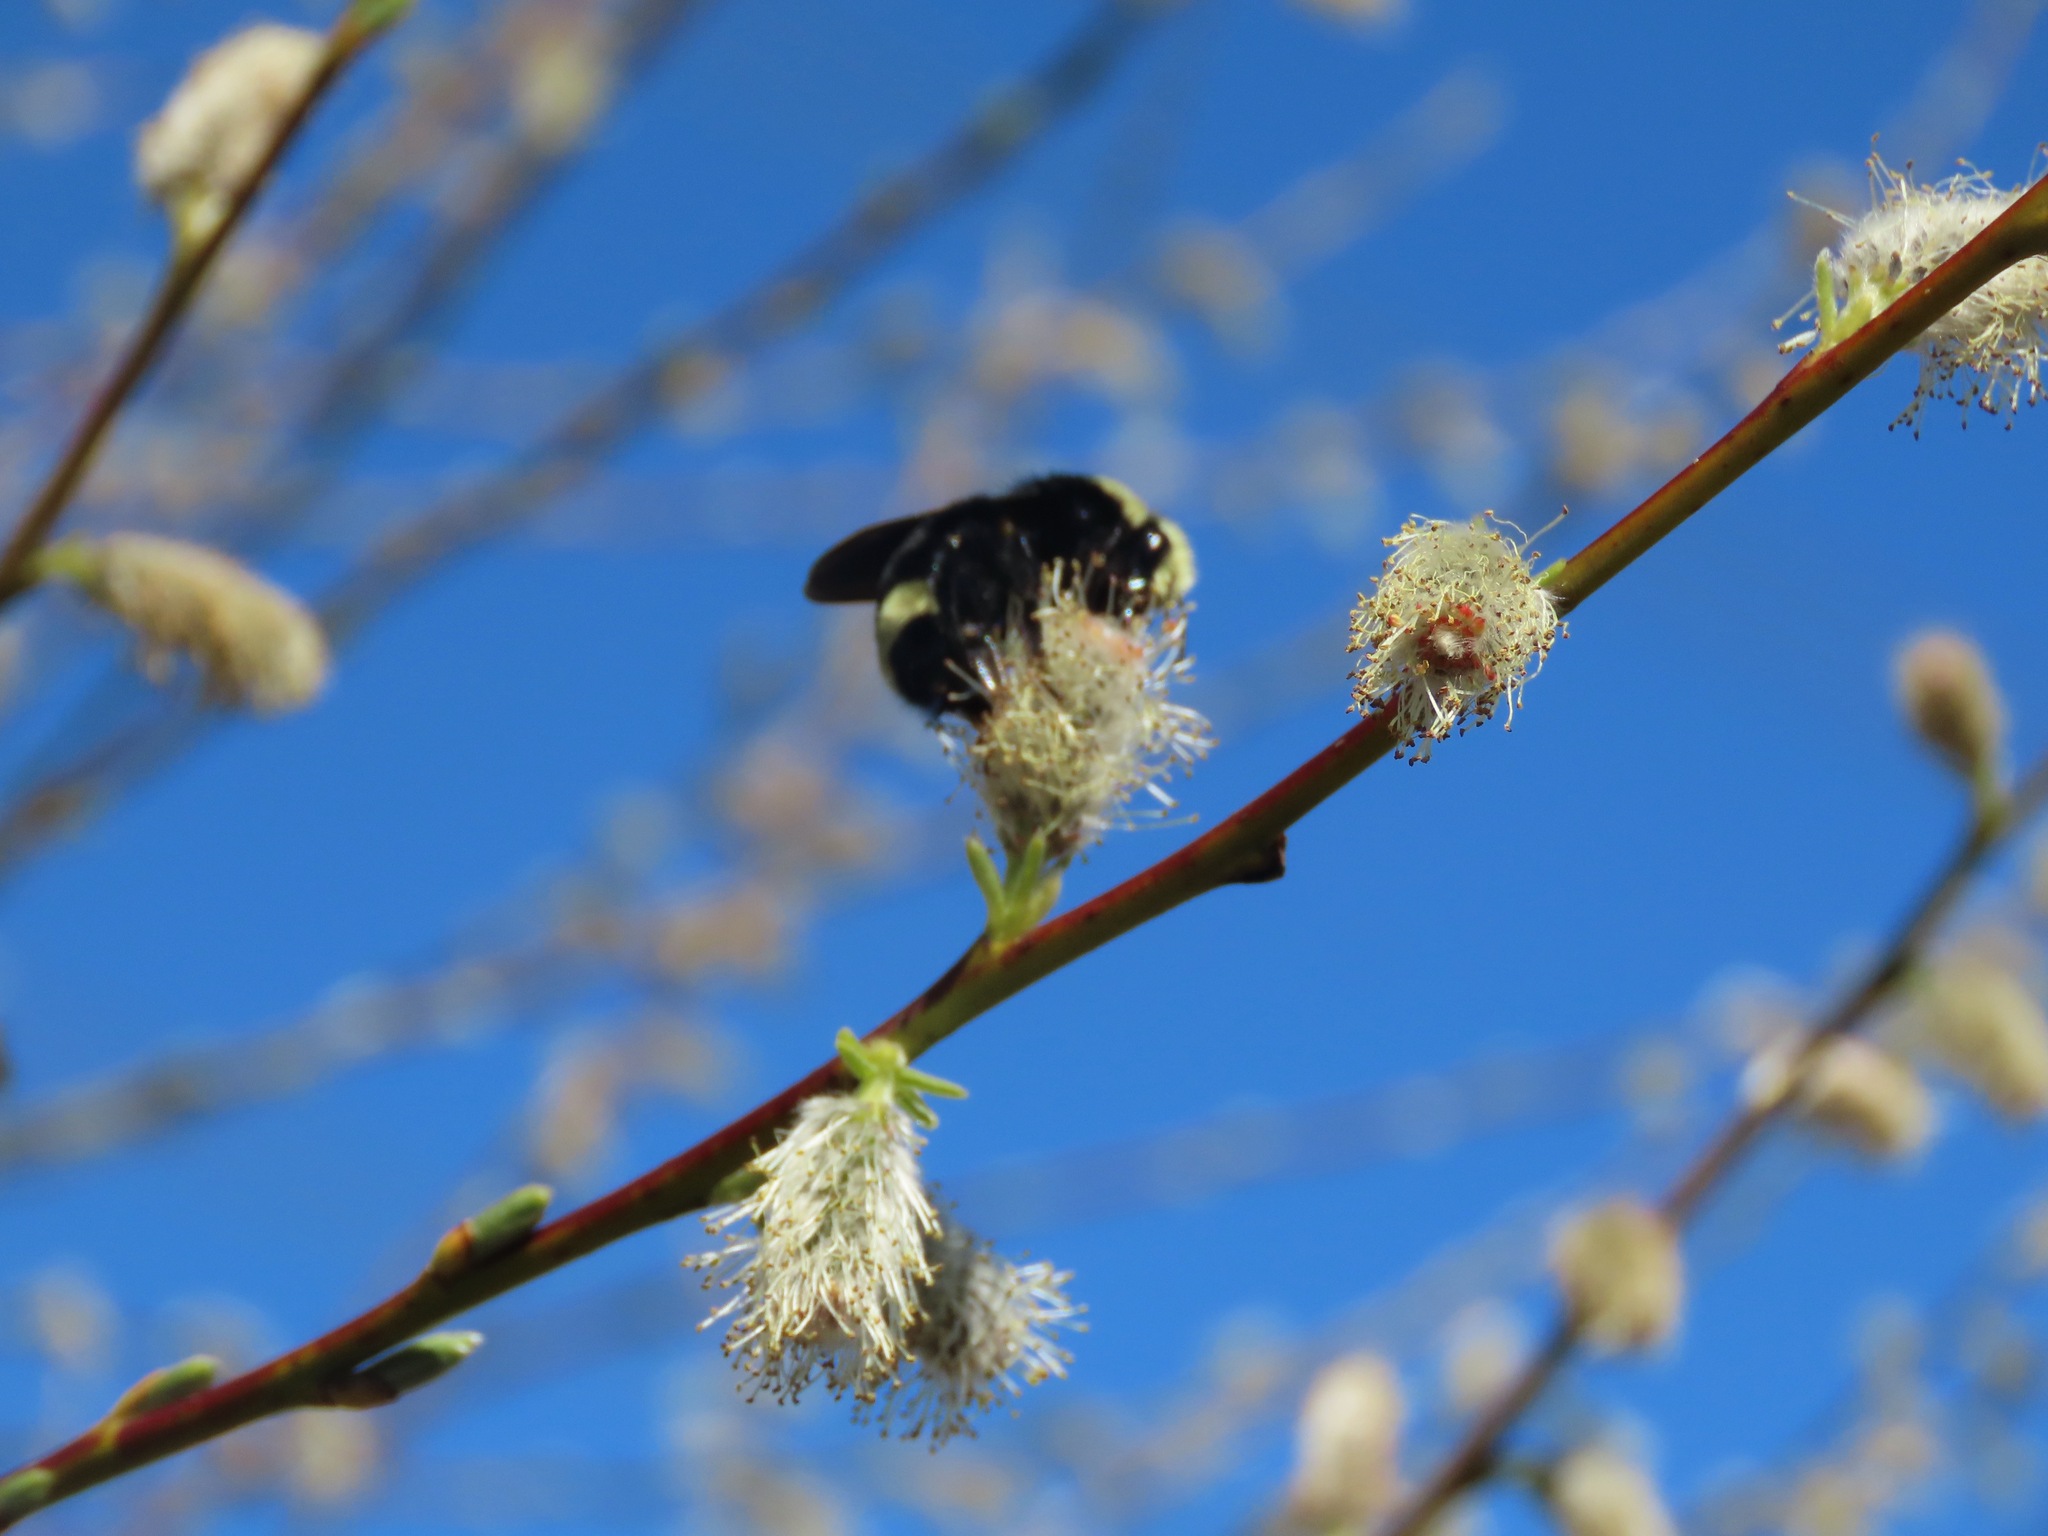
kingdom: Animalia
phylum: Arthropoda
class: Insecta
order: Hymenoptera
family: Apidae
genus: Bombus
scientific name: Bombus vosnesenskii
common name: Vosnesensky bumble bee
